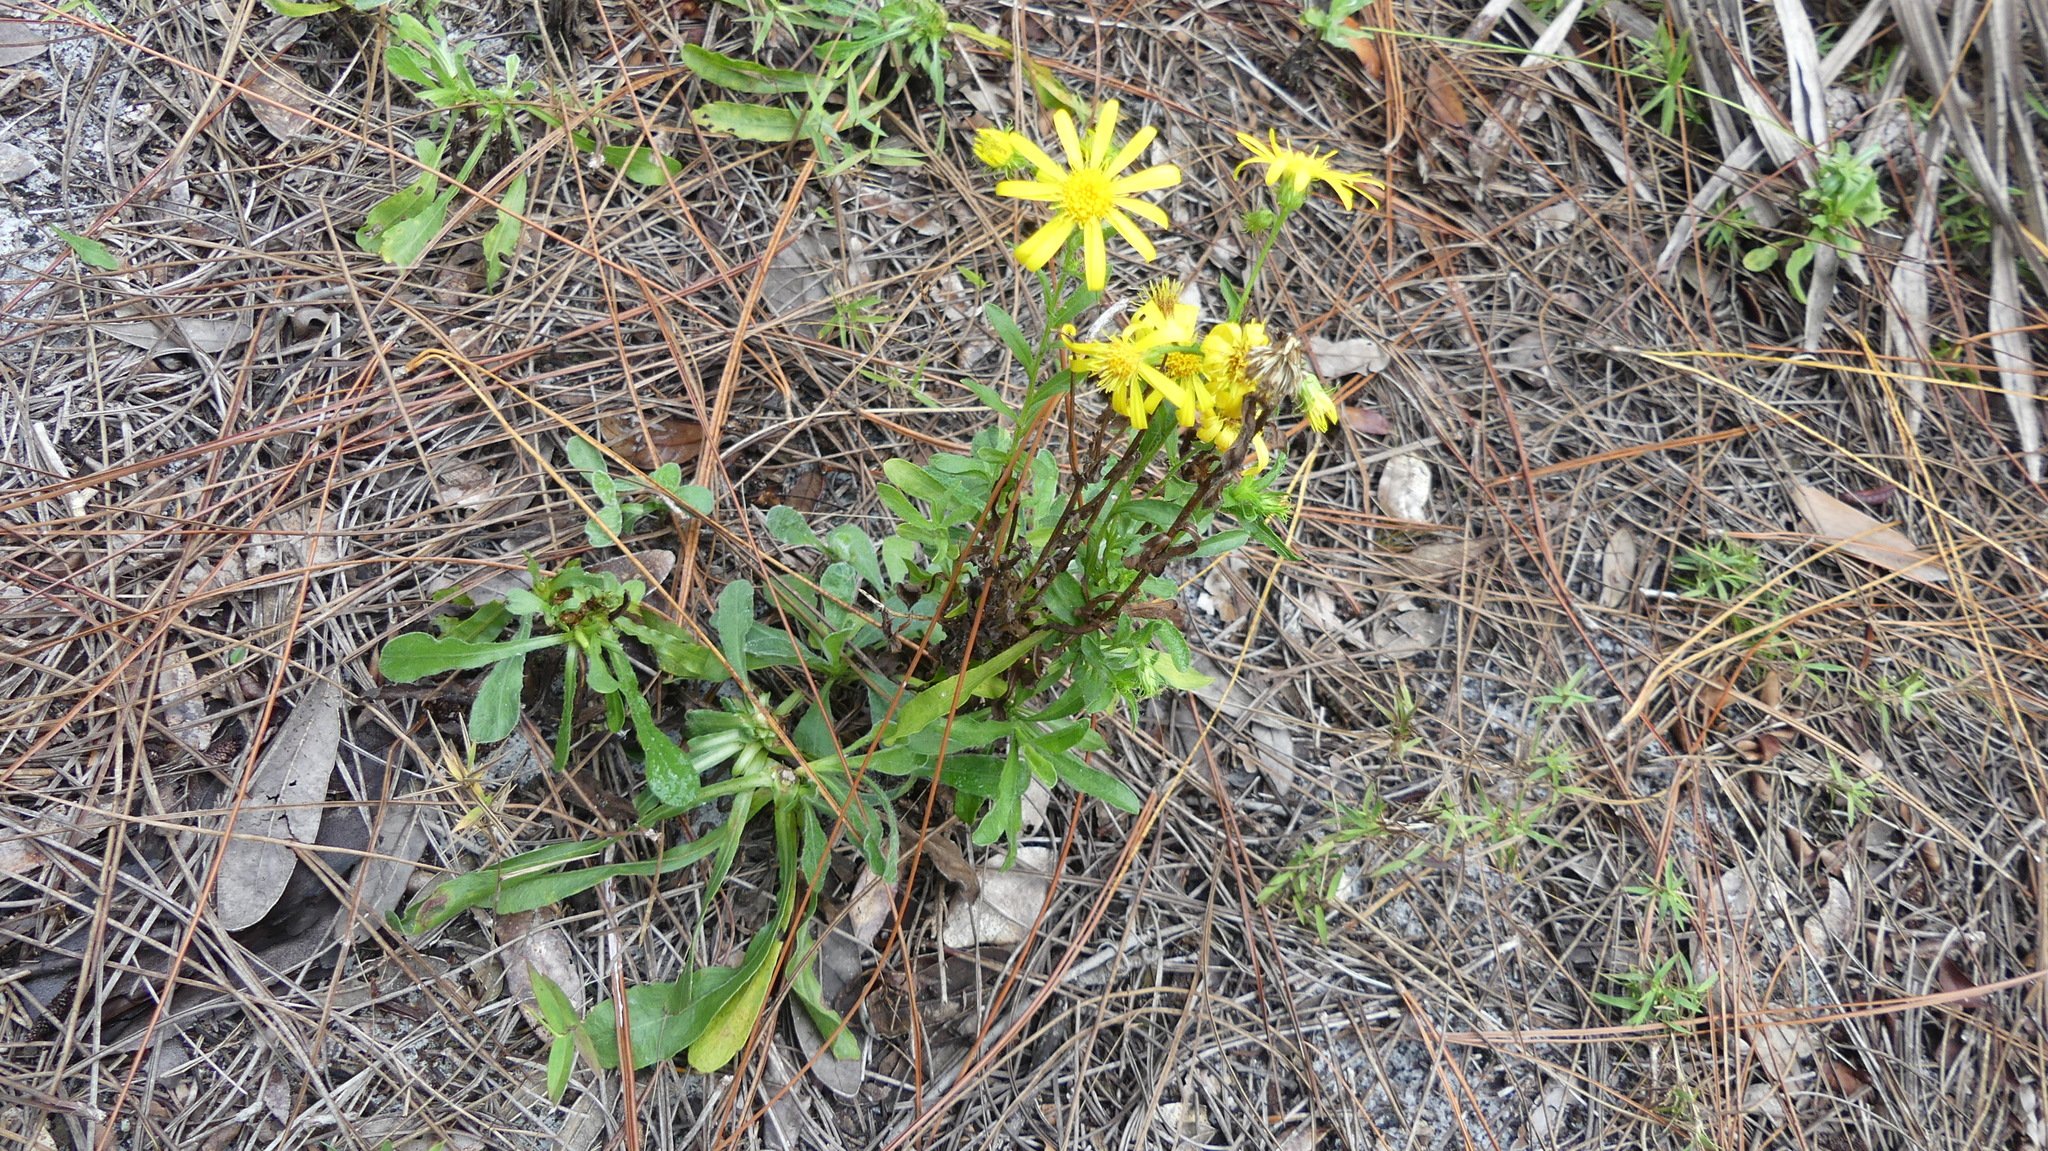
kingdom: Plantae
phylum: Tracheophyta
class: Magnoliopsida
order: Asterales
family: Asteraceae
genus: Chrysopsis
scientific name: Chrysopsis subulata
